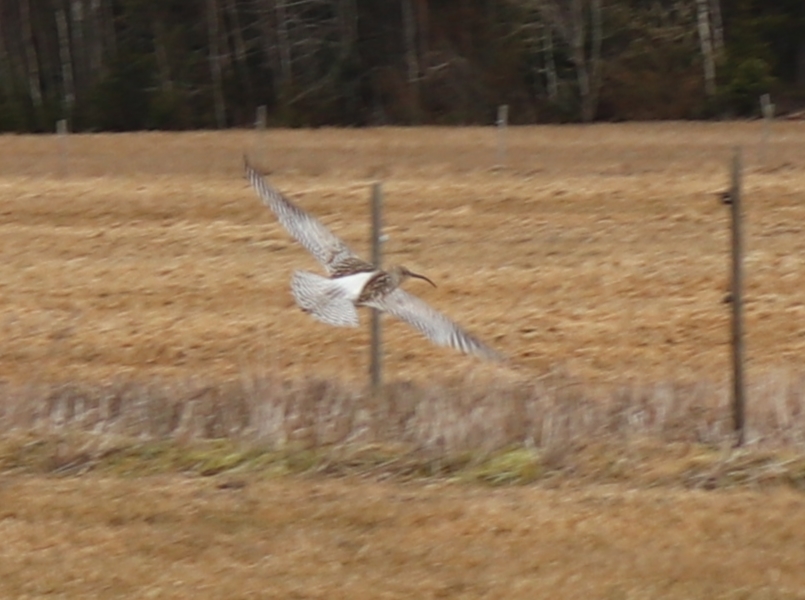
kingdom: Animalia
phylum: Chordata
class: Aves
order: Charadriiformes
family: Scolopacidae
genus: Numenius
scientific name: Numenius arquata
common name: Eurasian curlew
